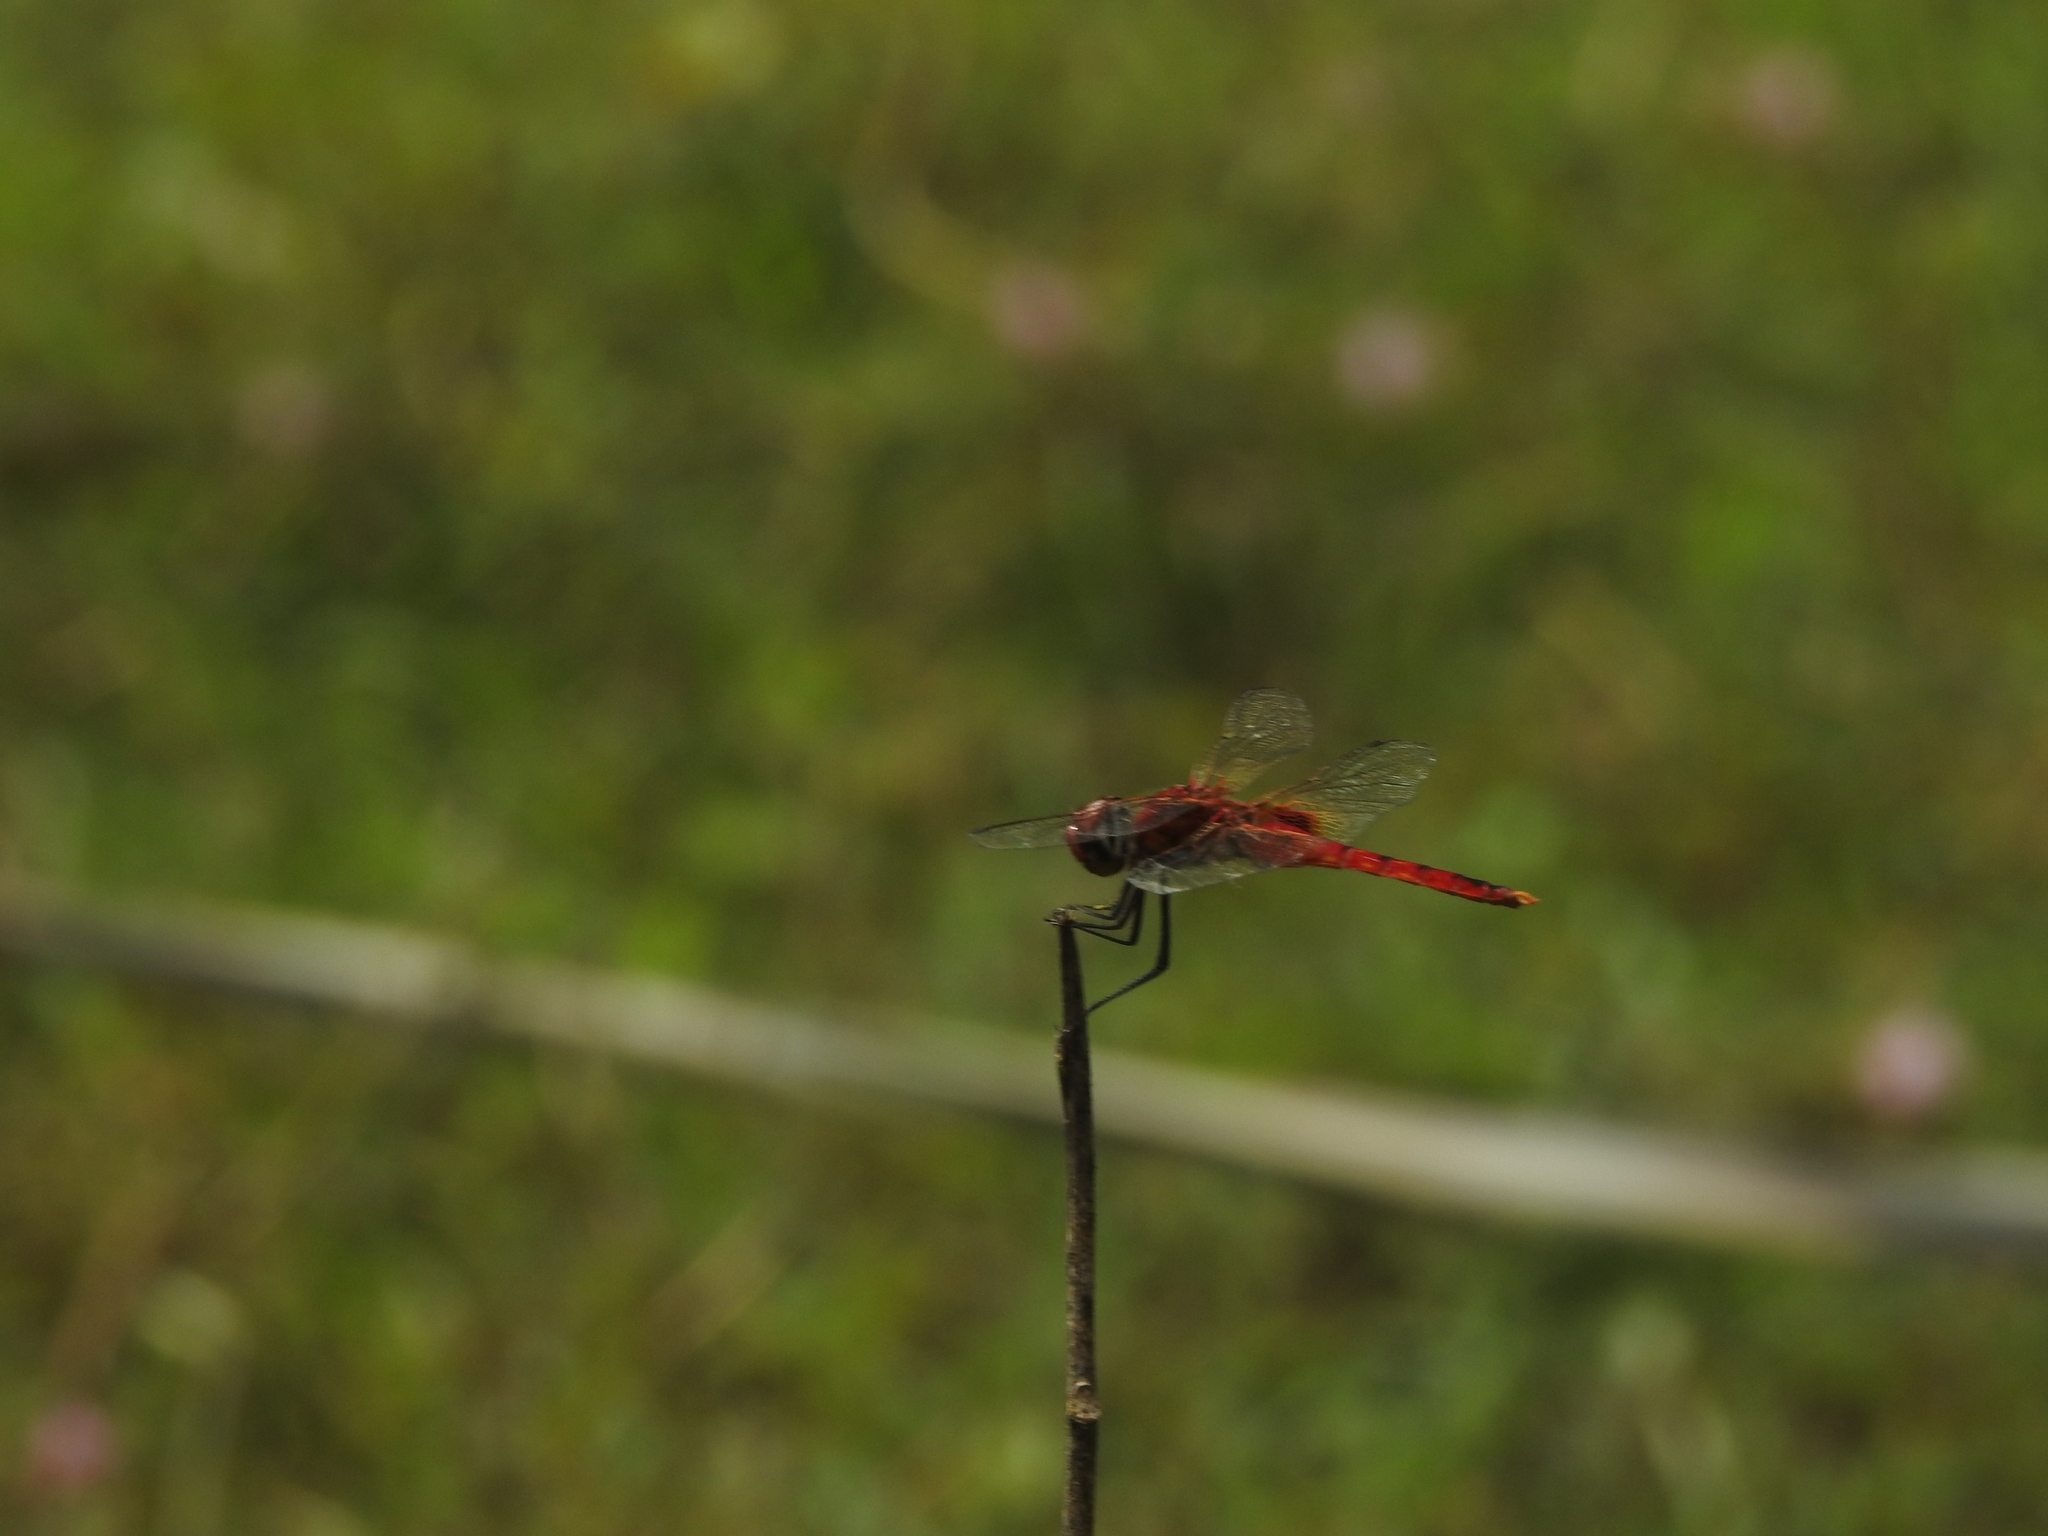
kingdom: Animalia
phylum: Arthropoda
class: Insecta
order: Odonata
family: Libellulidae
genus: Urothemis
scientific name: Urothemis signata
